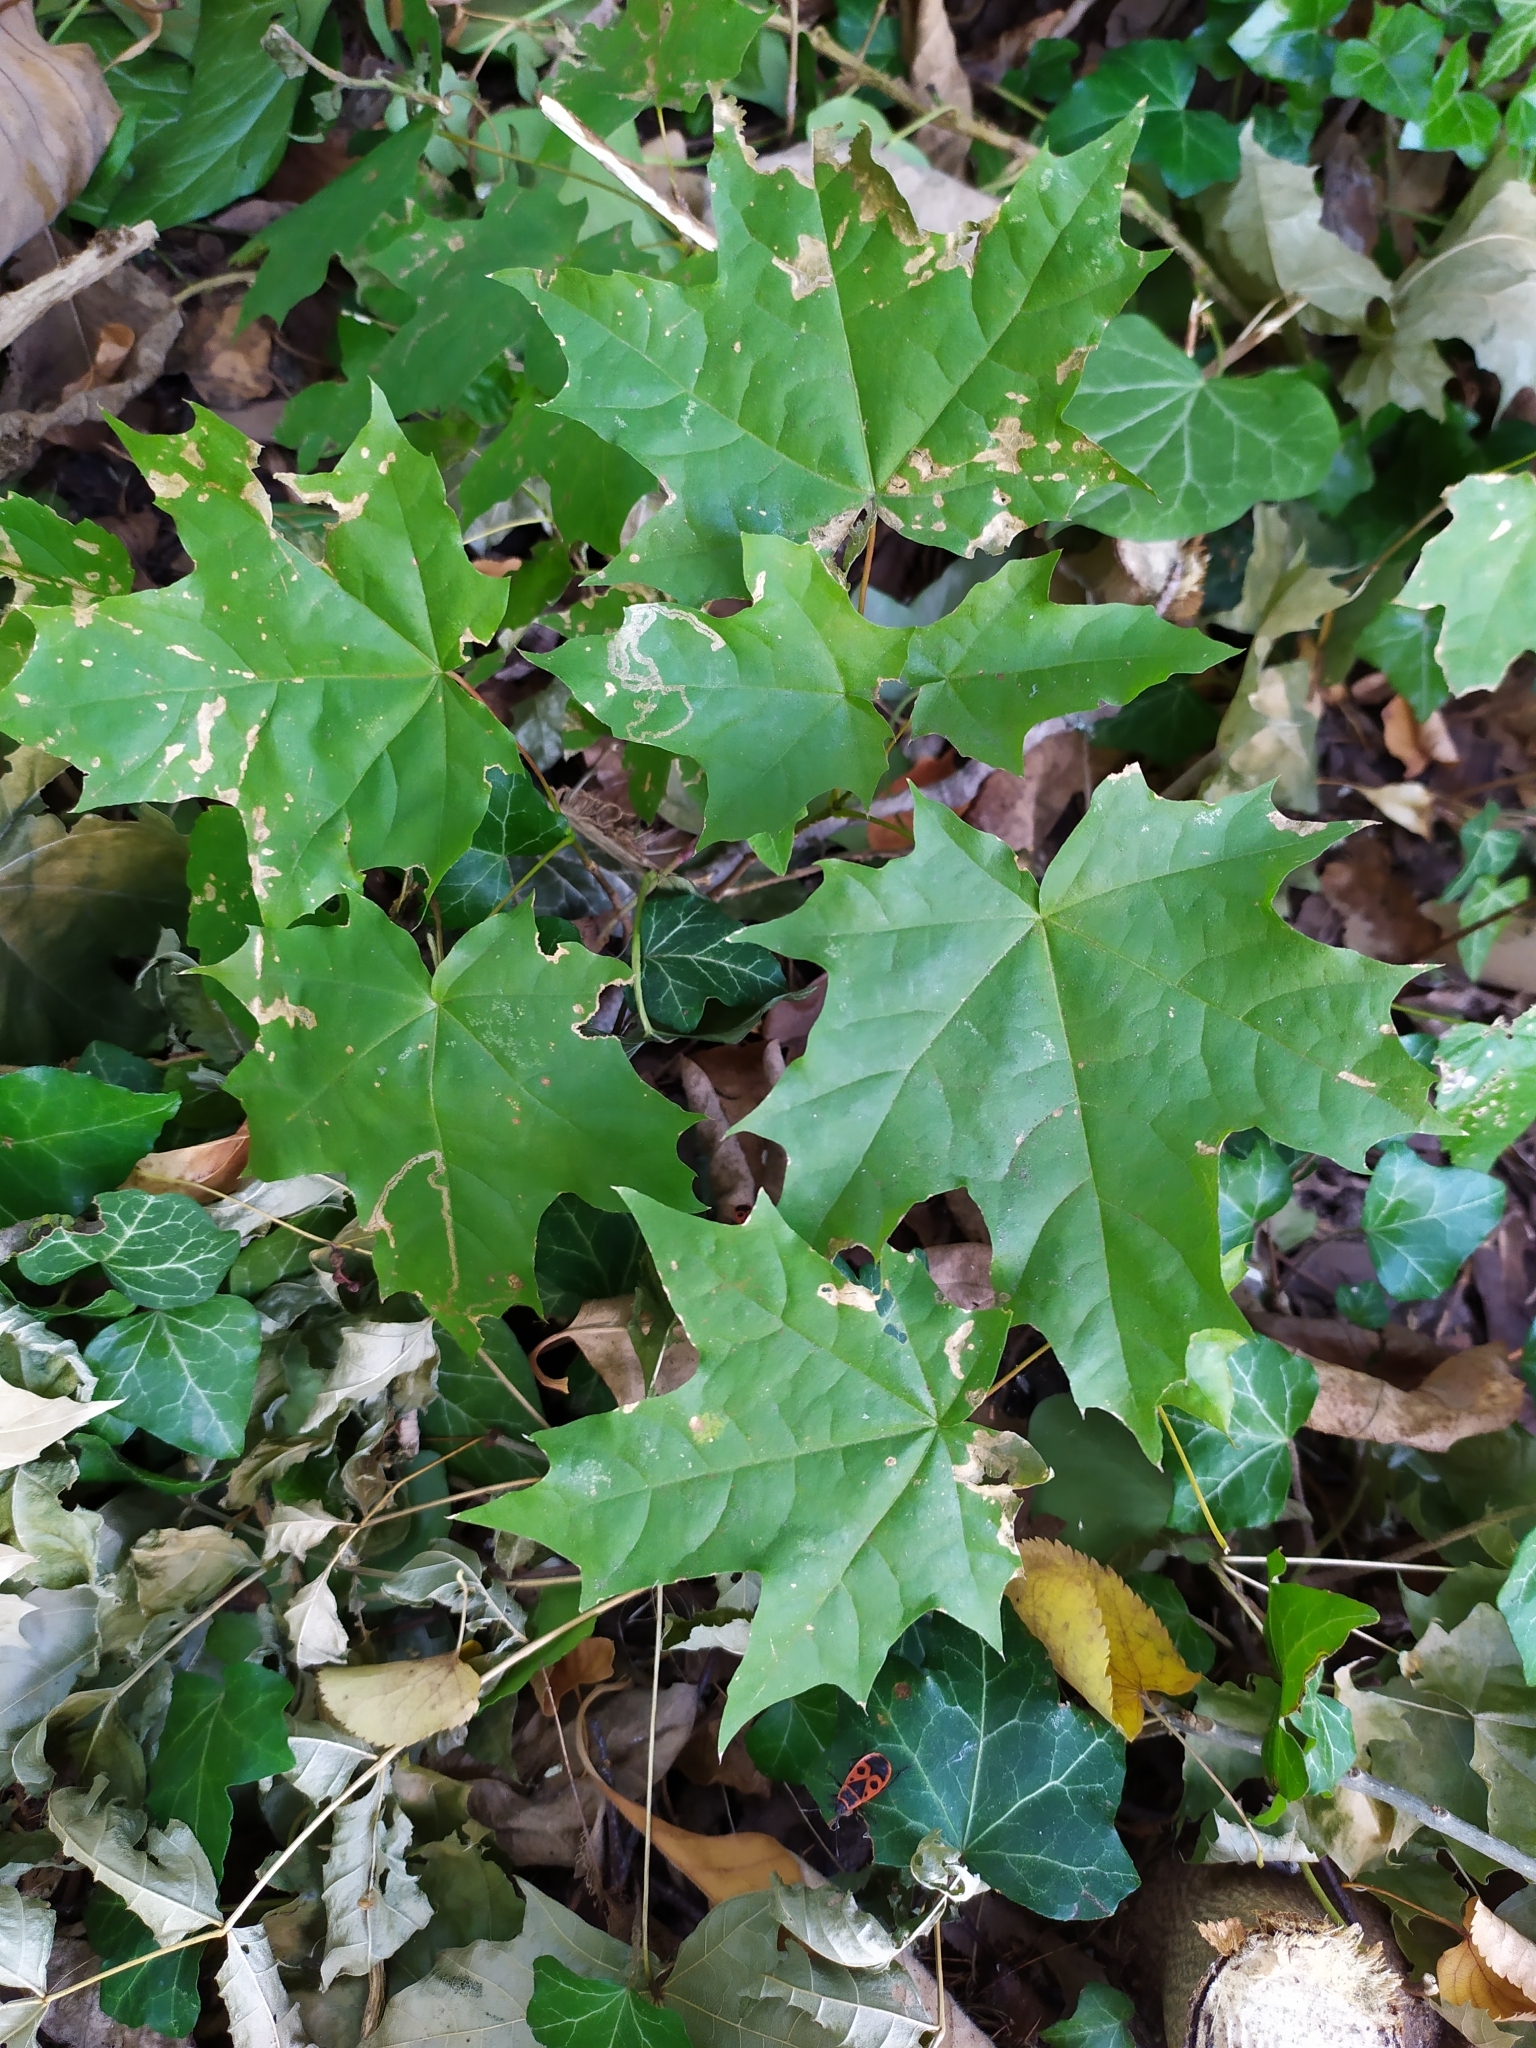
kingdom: Plantae
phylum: Tracheophyta
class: Magnoliopsida
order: Sapindales
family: Sapindaceae
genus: Acer
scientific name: Acer platanoides
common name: Norway maple
